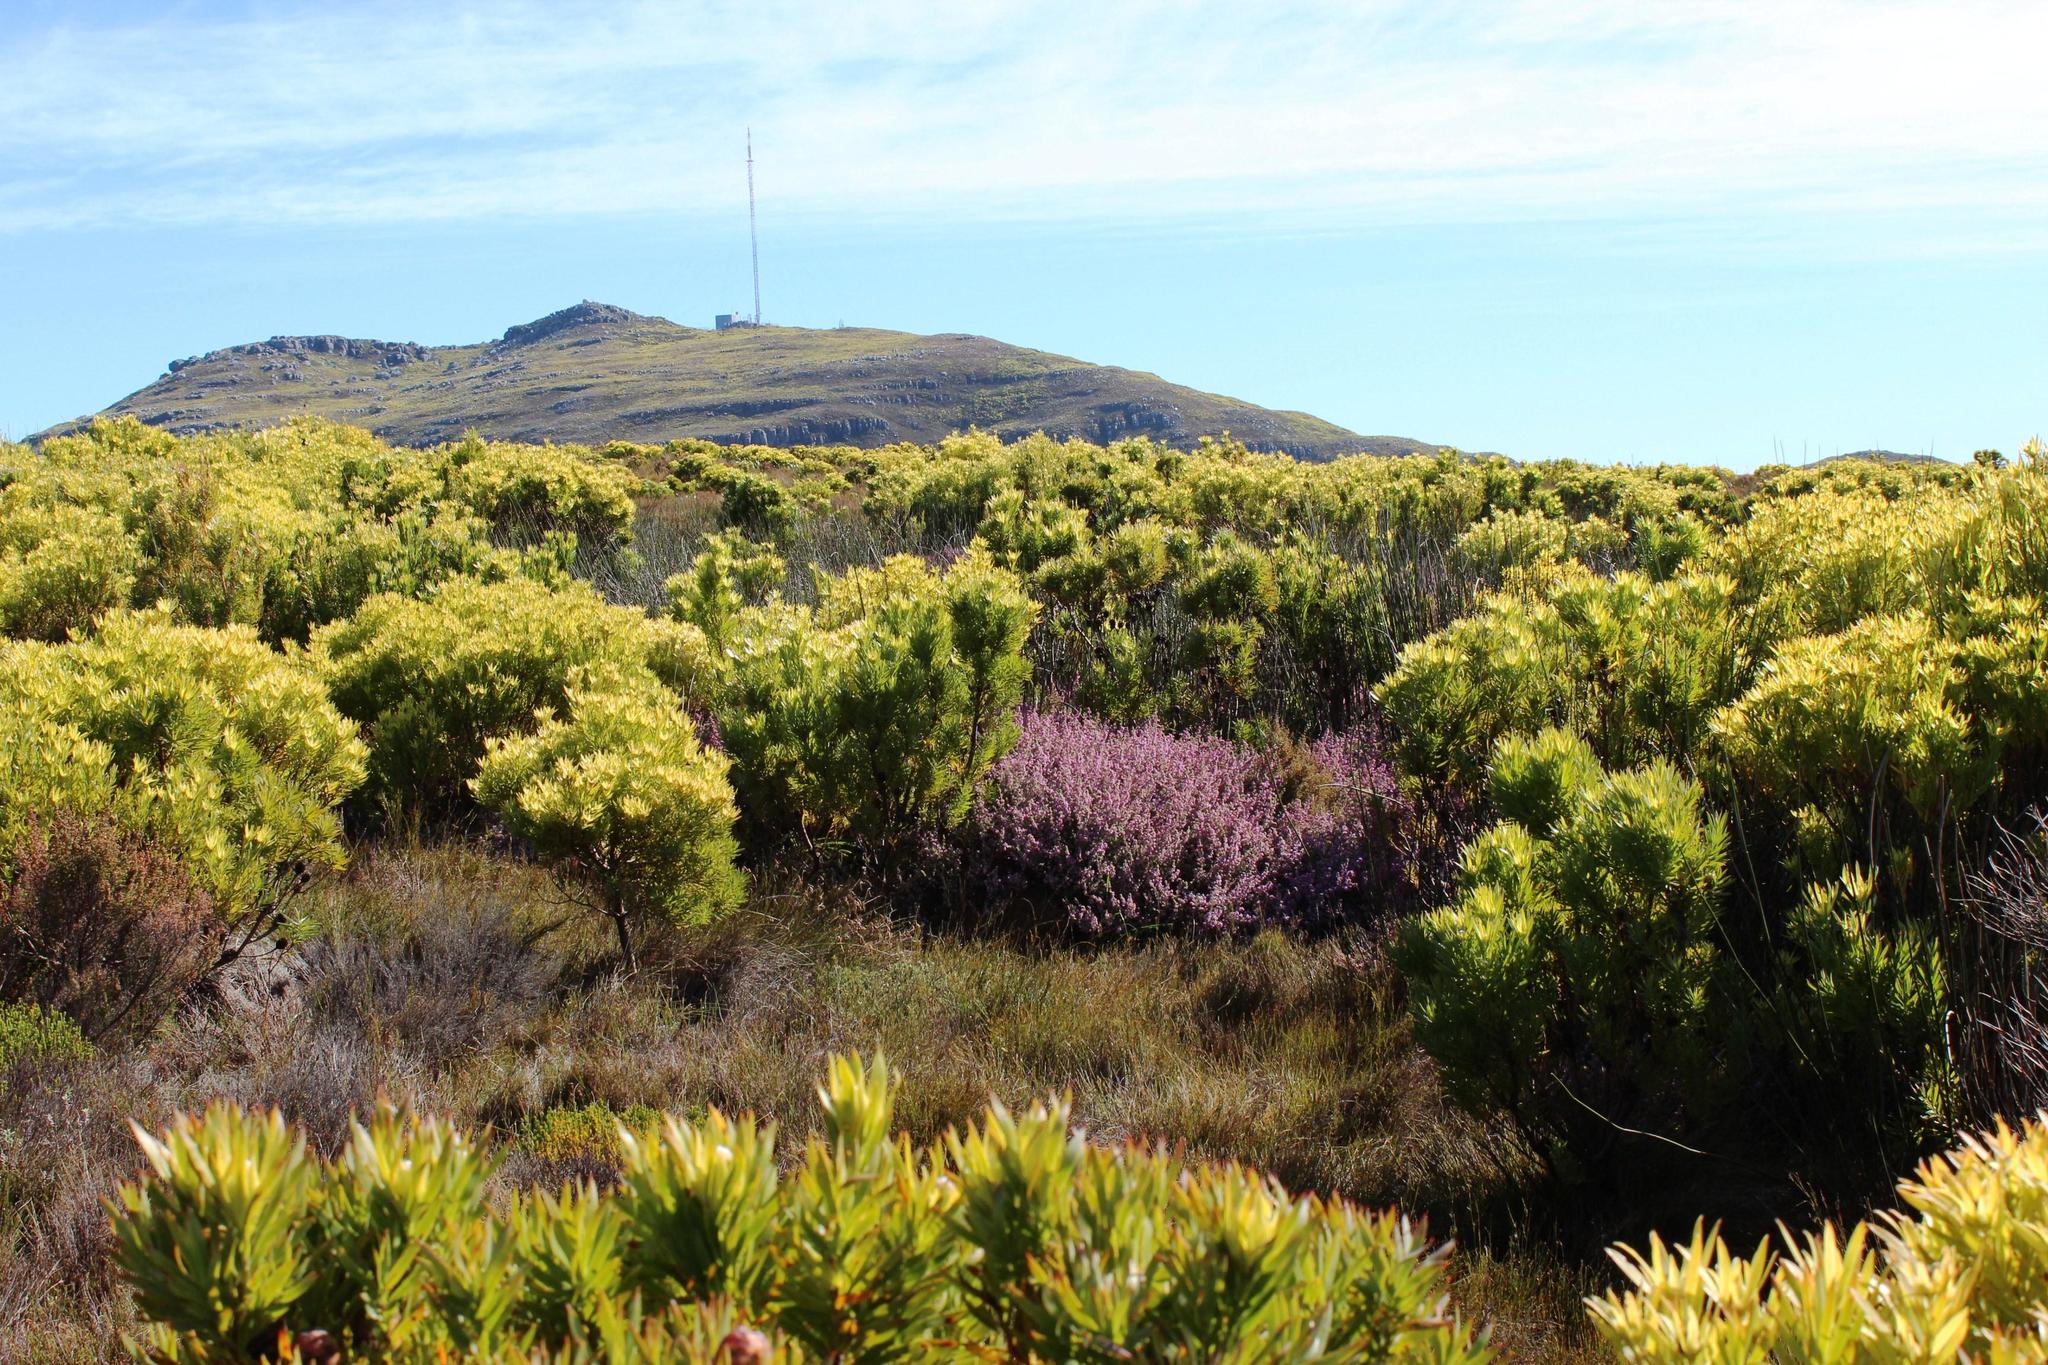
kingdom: Plantae
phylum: Tracheophyta
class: Magnoliopsida
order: Proteales
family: Proteaceae
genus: Leucadendron
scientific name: Leucadendron xanthoconus
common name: Sickle-leaf conebush
